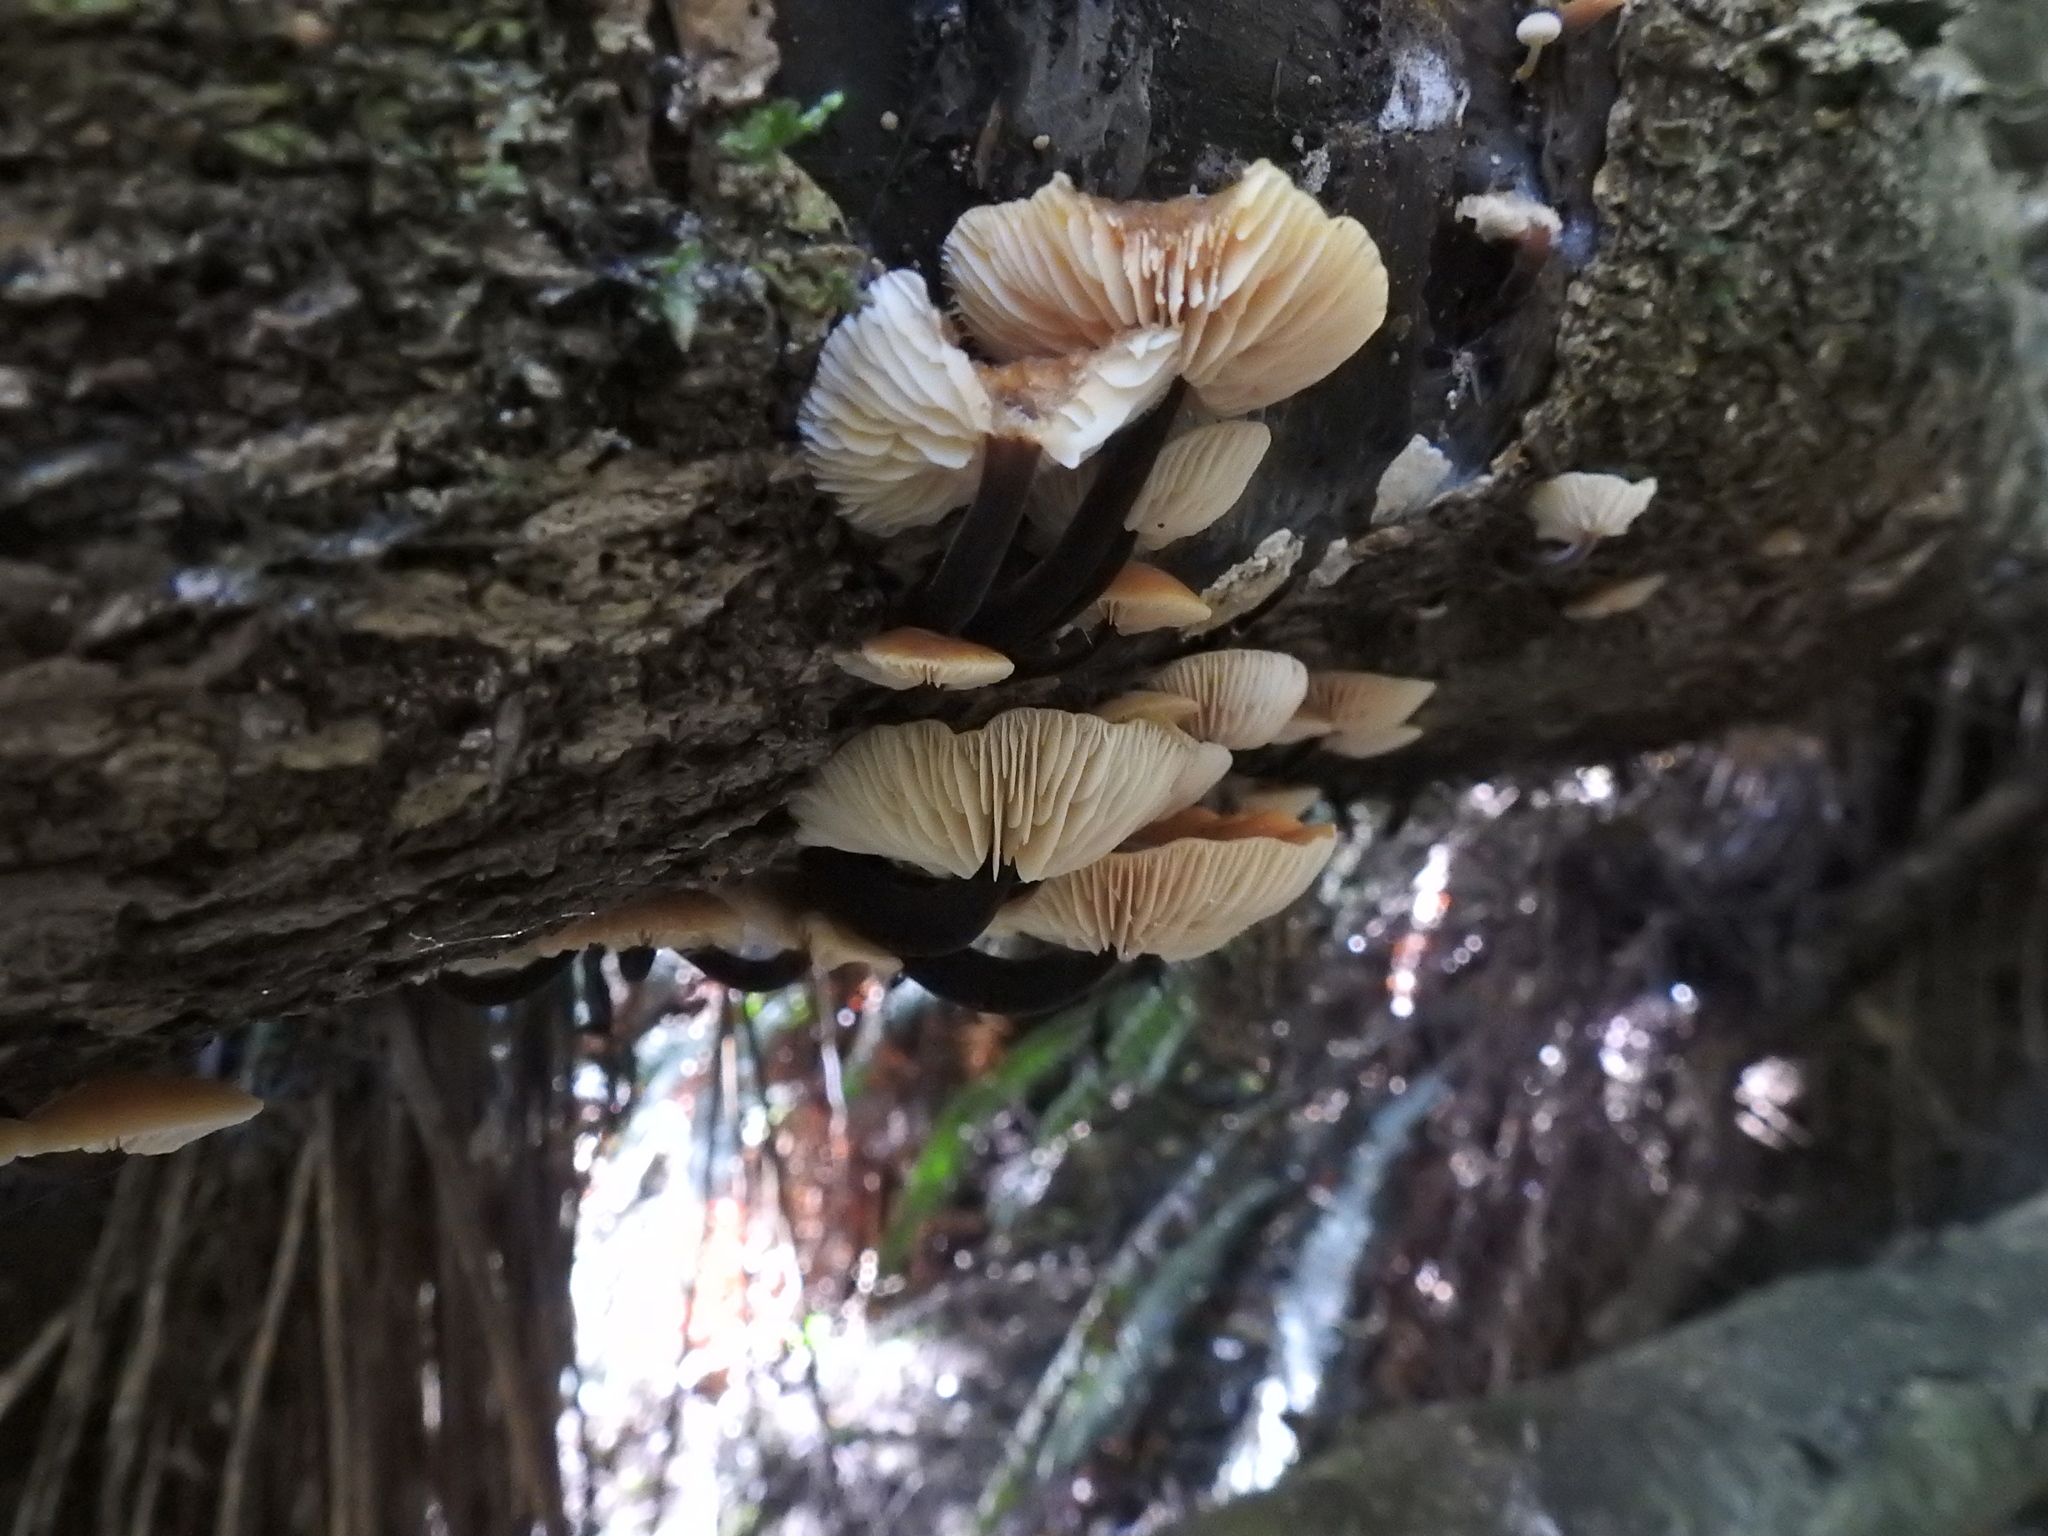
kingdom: Fungi
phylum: Basidiomycota
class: Agaricomycetes
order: Agaricales
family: Physalacriaceae
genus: Flammulina
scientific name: Flammulina velutipes
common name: Velvet shank
